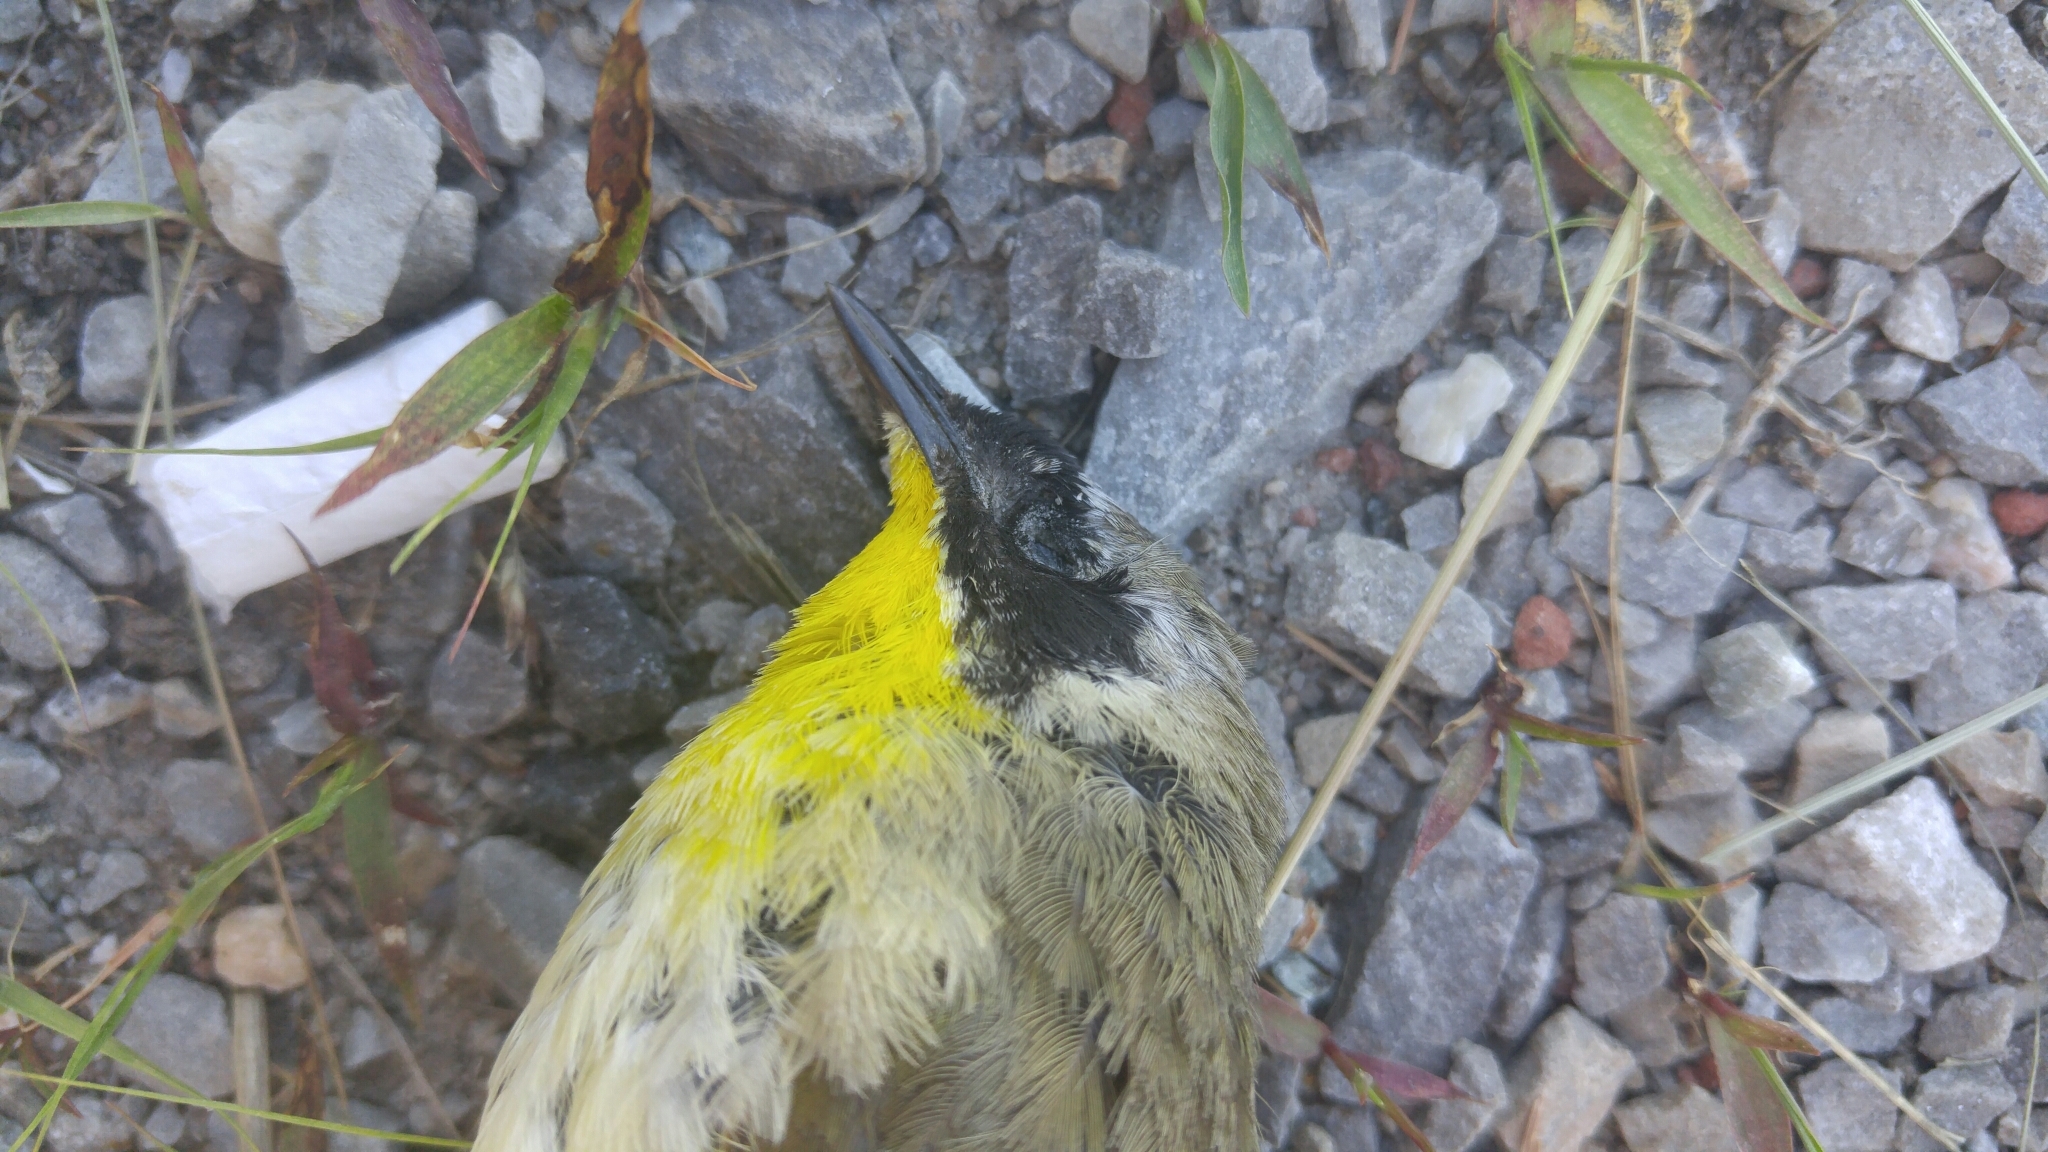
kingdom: Animalia
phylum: Chordata
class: Aves
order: Passeriformes
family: Parulidae
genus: Geothlypis
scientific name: Geothlypis trichas
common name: Common yellowthroat
